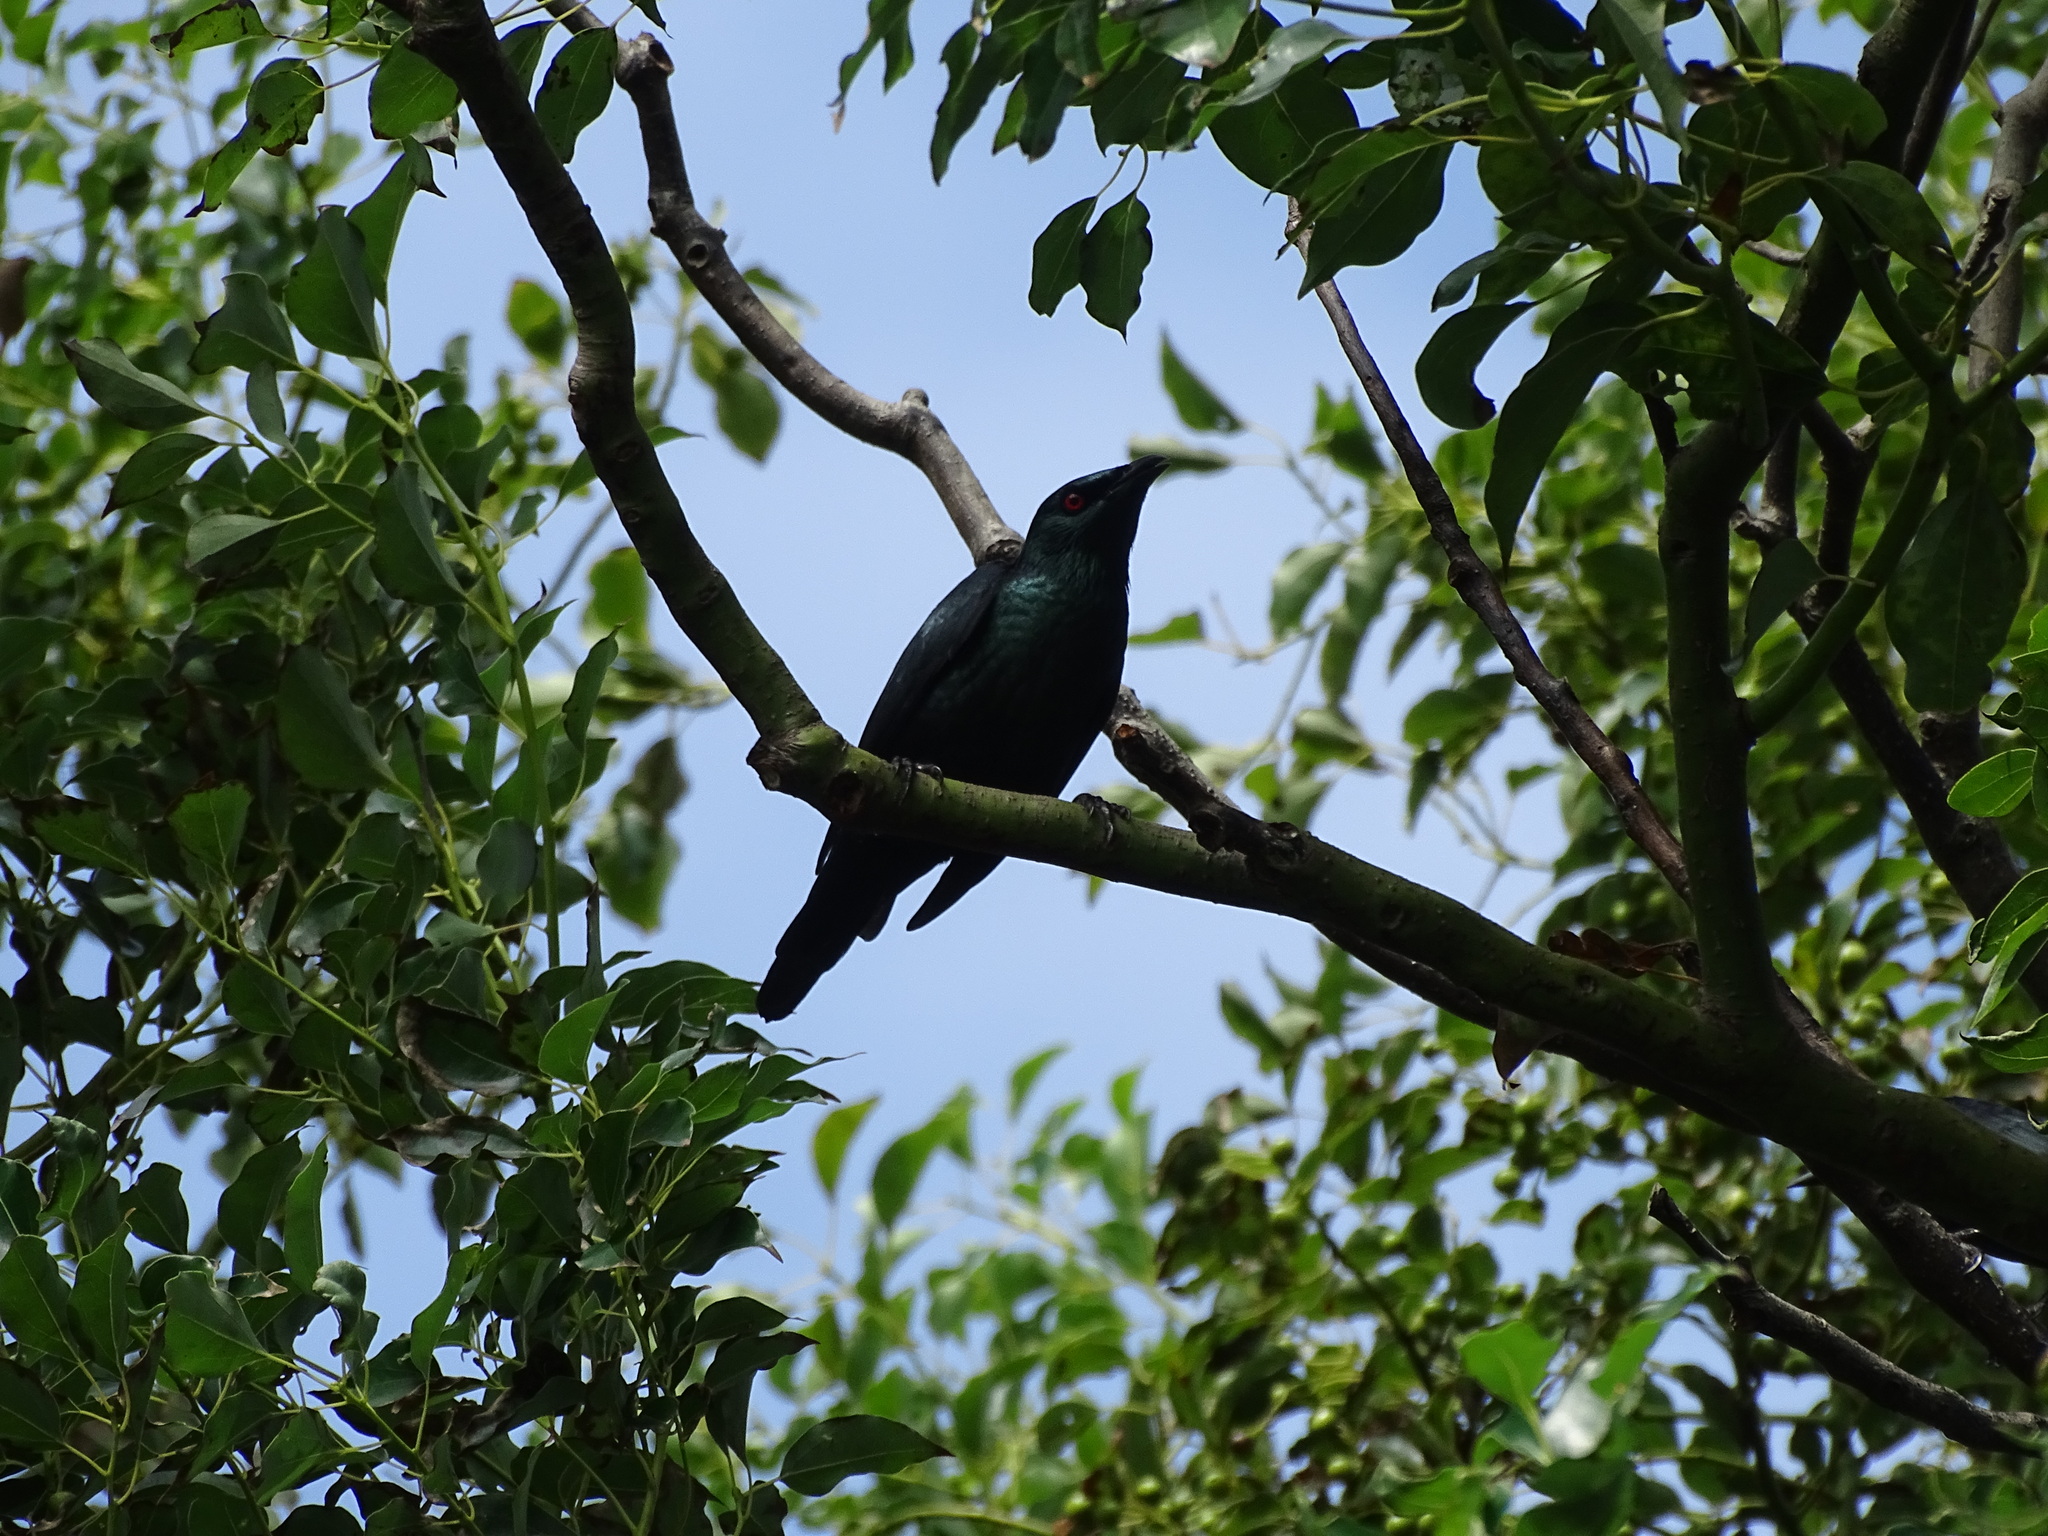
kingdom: Animalia
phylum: Chordata
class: Aves
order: Passeriformes
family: Sturnidae
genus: Aplonis
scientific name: Aplonis panayensis
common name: Asian glossy starling
